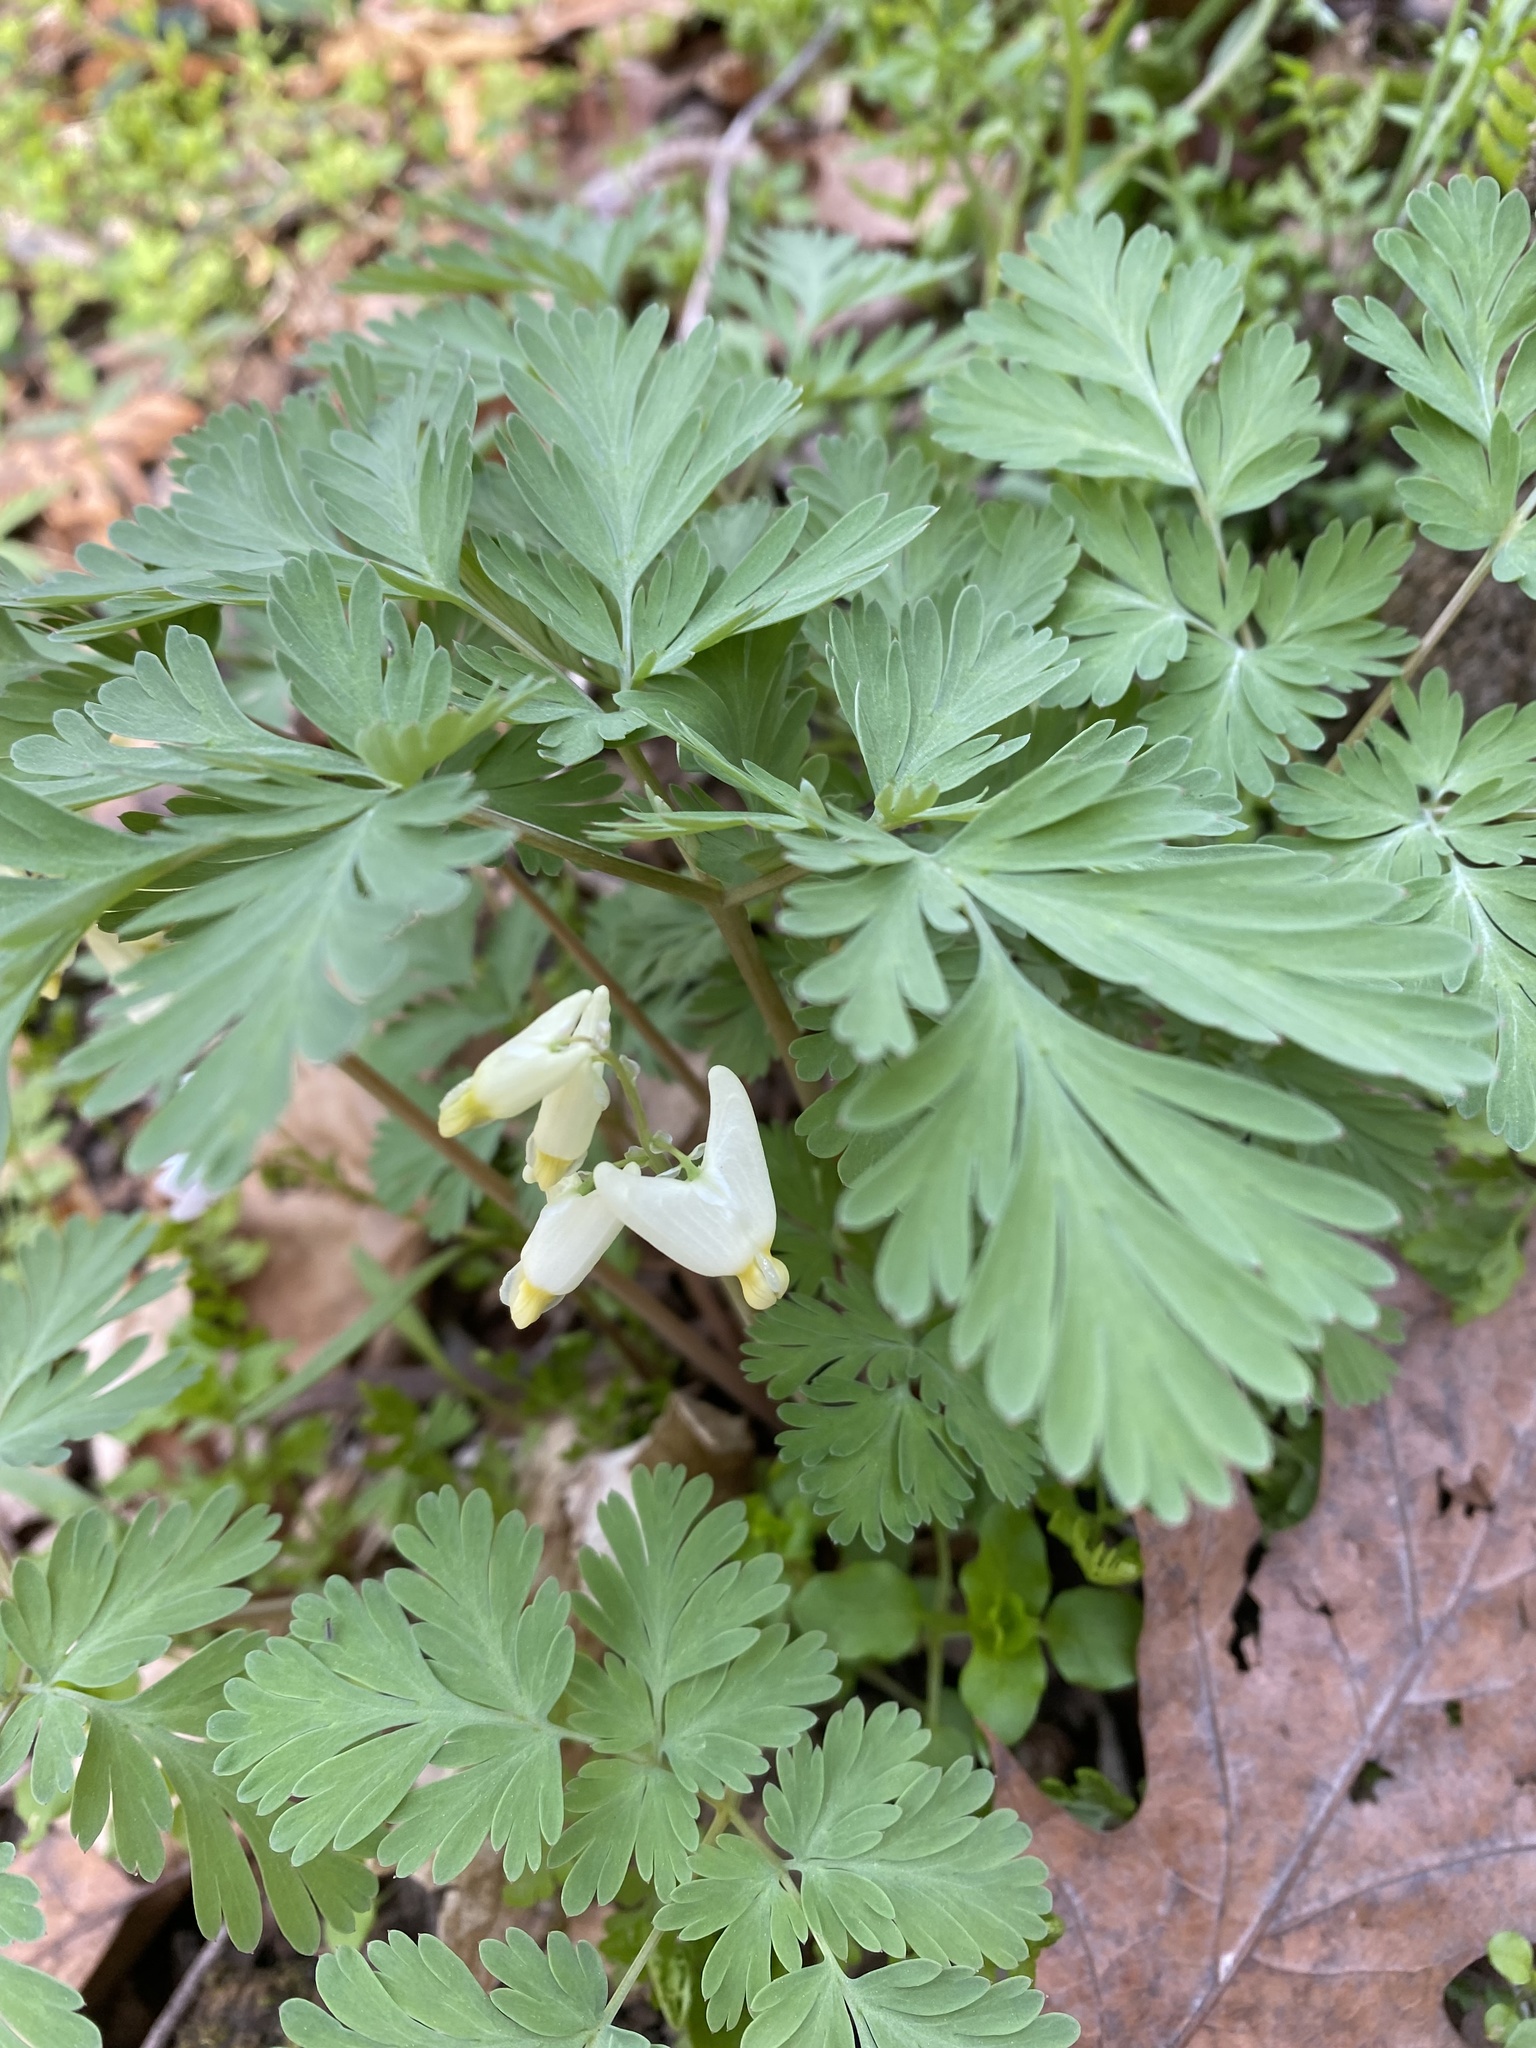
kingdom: Plantae
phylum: Tracheophyta
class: Magnoliopsida
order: Ranunculales
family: Papaveraceae
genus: Dicentra
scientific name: Dicentra cucullaria
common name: Dutchman's breeches
